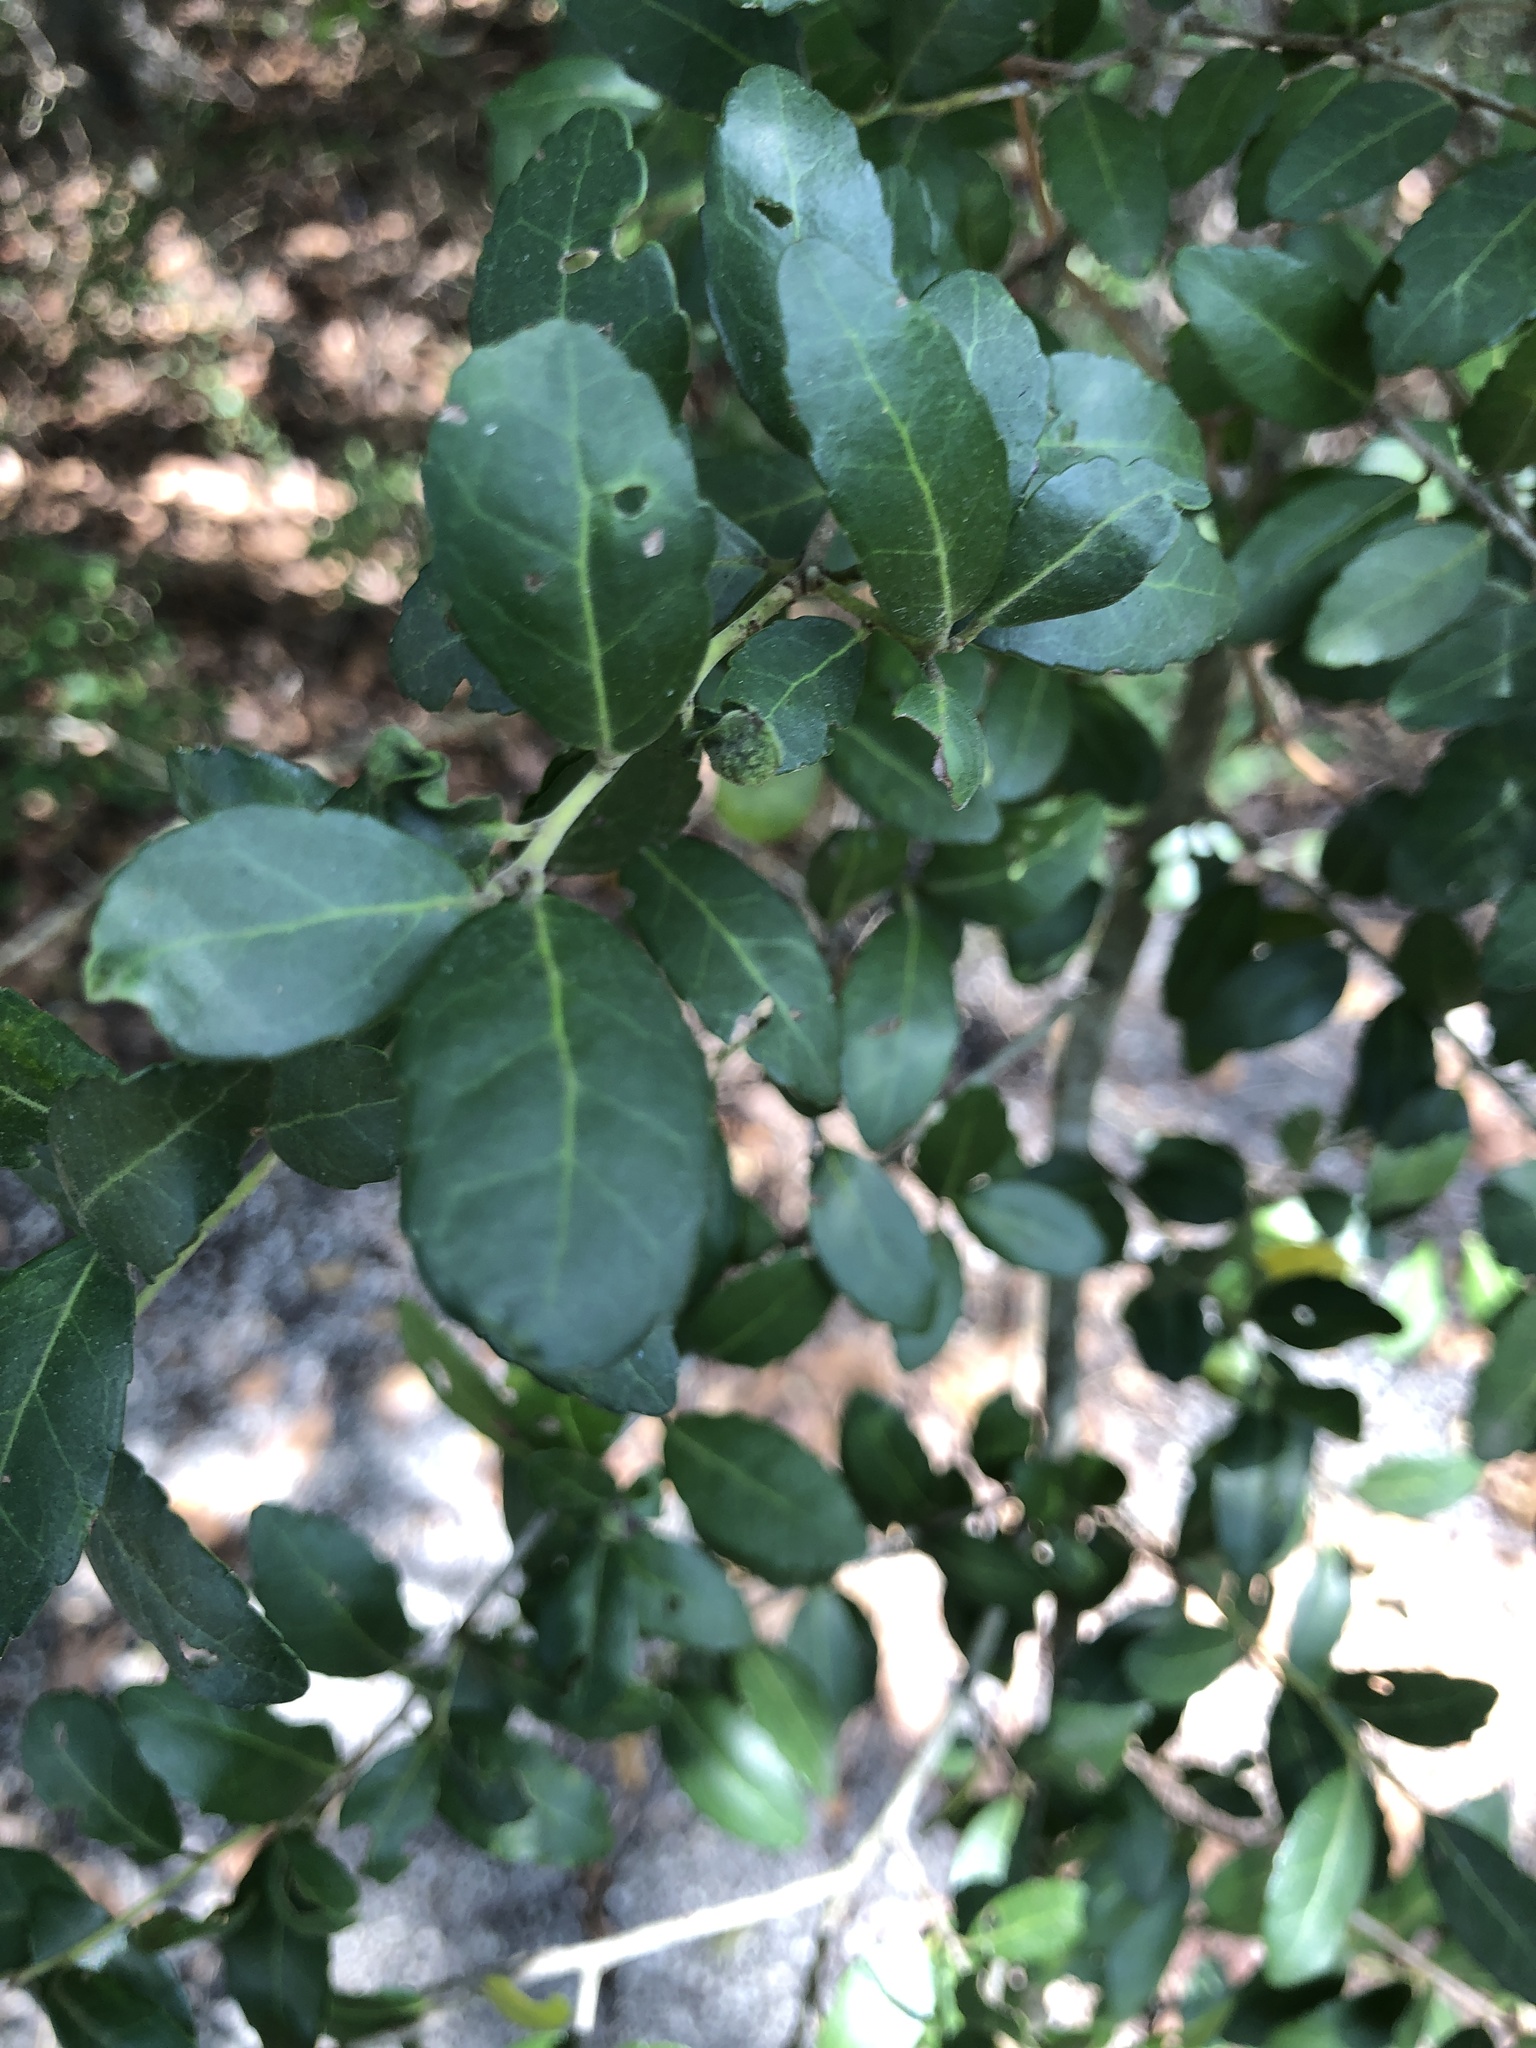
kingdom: Plantae
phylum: Tracheophyta
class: Magnoliopsida
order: Aquifoliales
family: Aquifoliaceae
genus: Ilex
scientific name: Ilex vomitoria
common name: Yaupon holly
